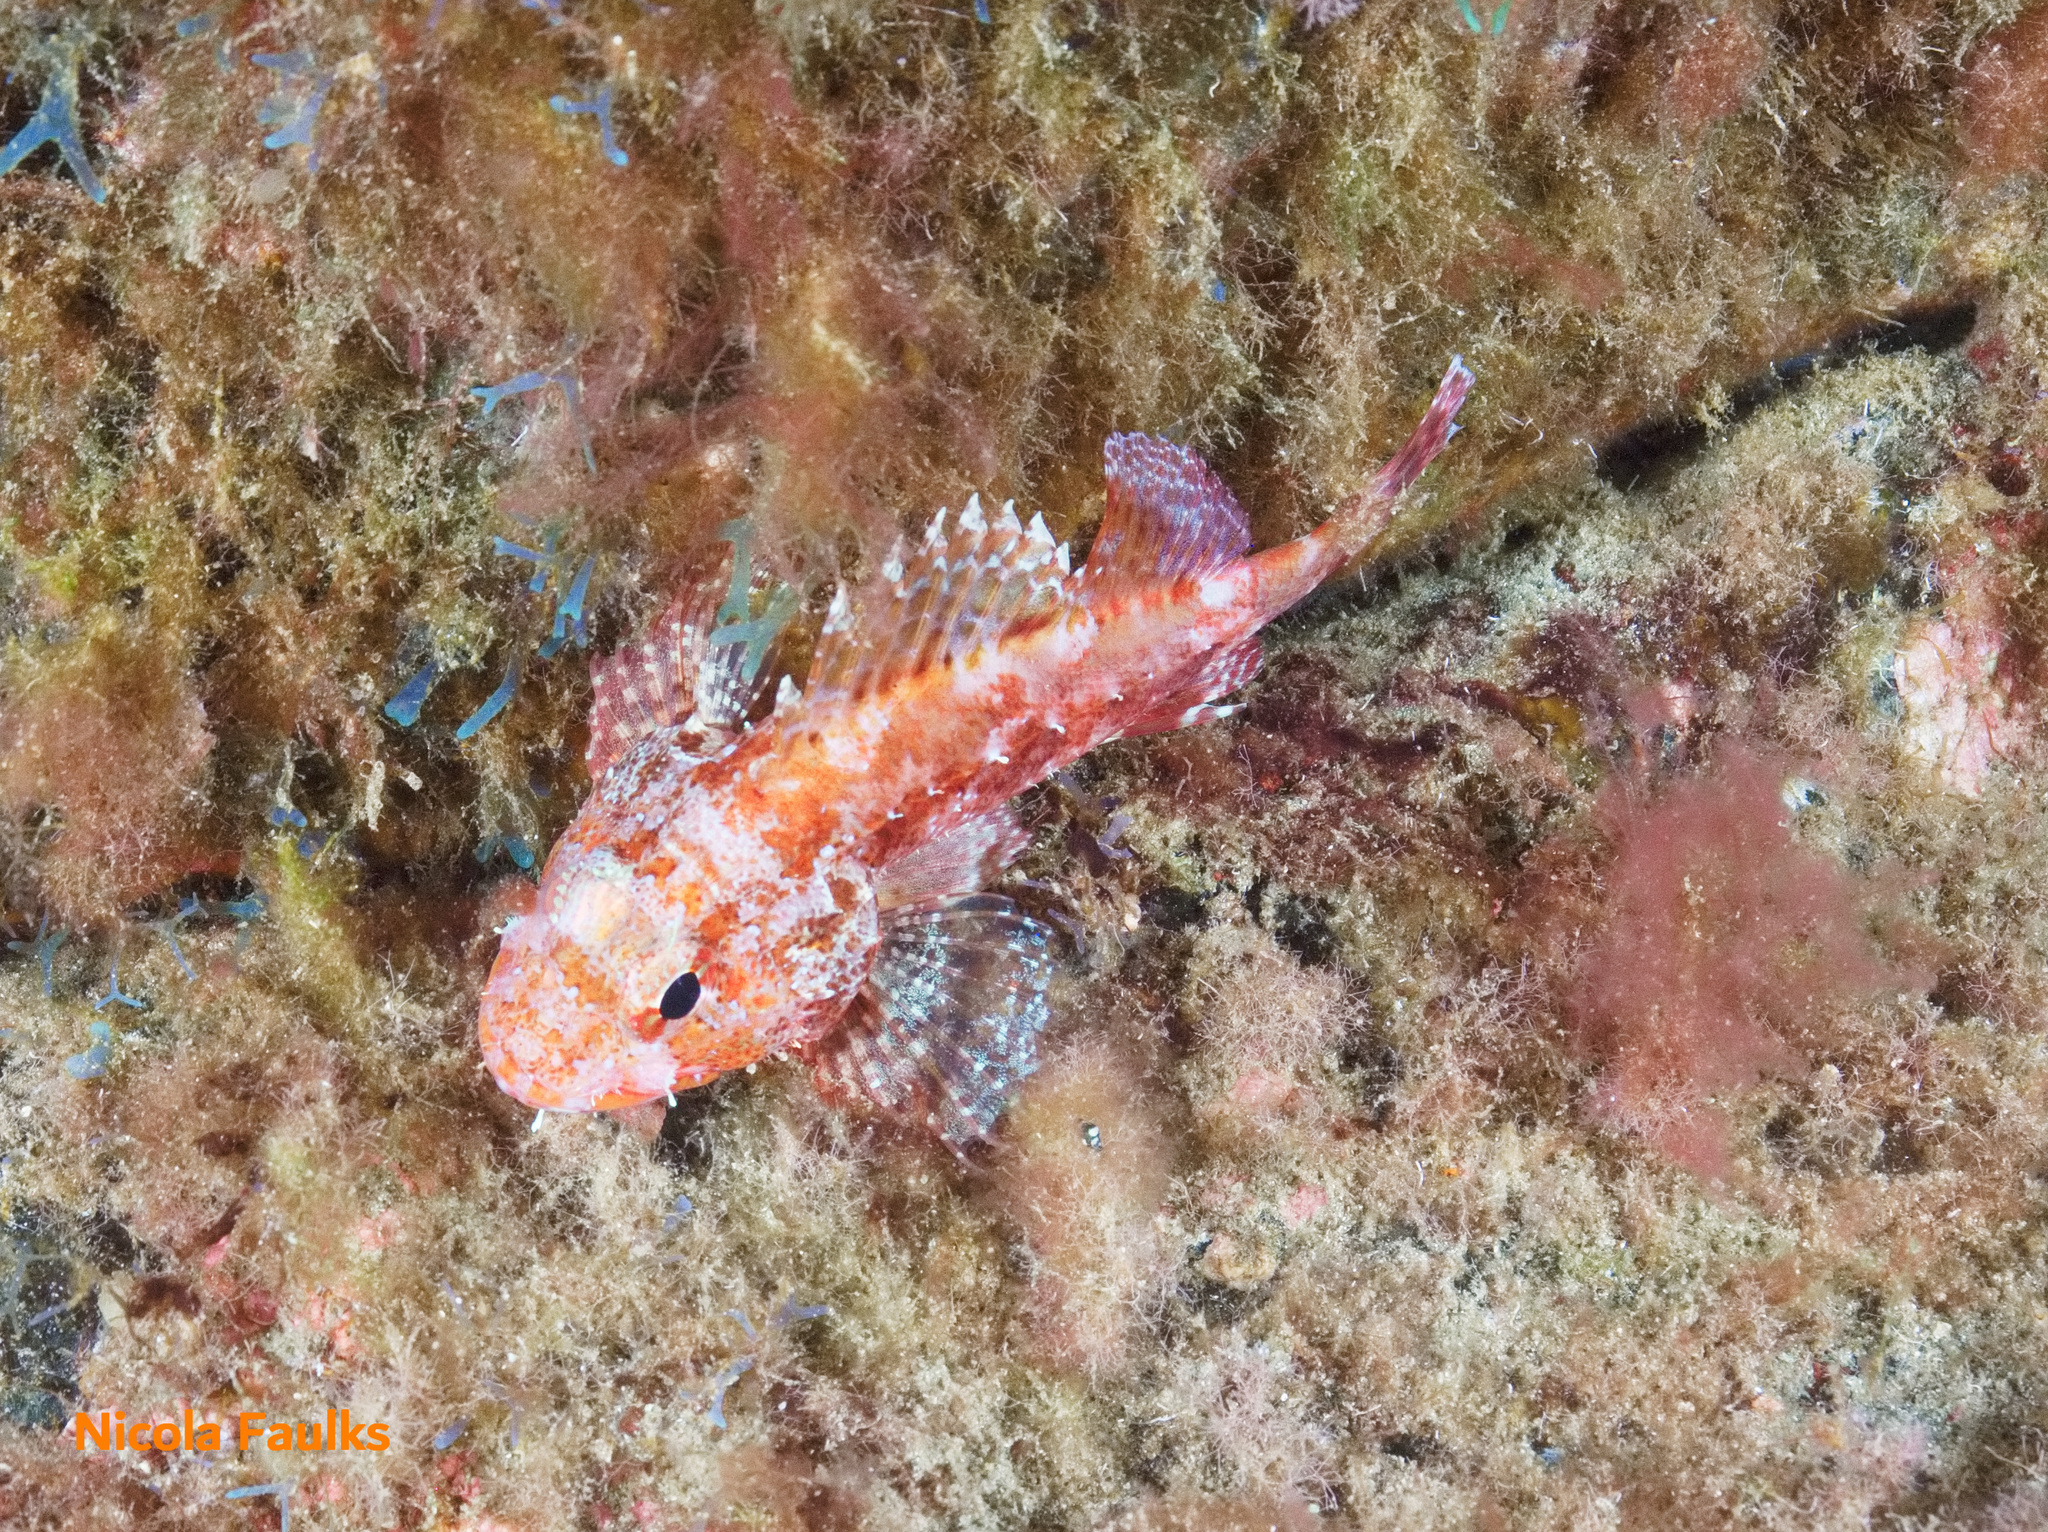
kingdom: Animalia
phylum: Chordata
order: Scorpaeniformes
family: Scorpaenidae
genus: Scorpaena
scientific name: Scorpaena maderensis
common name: Madeira rockfish
